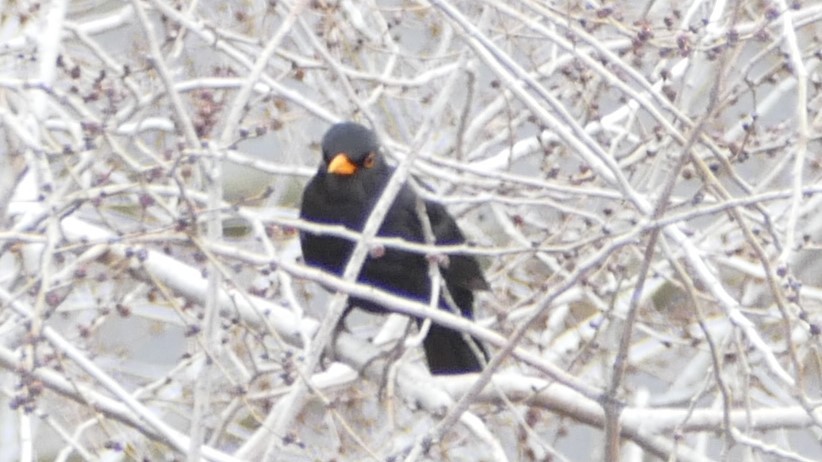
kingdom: Animalia
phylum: Chordata
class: Aves
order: Passeriformes
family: Turdidae
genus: Turdus
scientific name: Turdus merula
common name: Common blackbird
